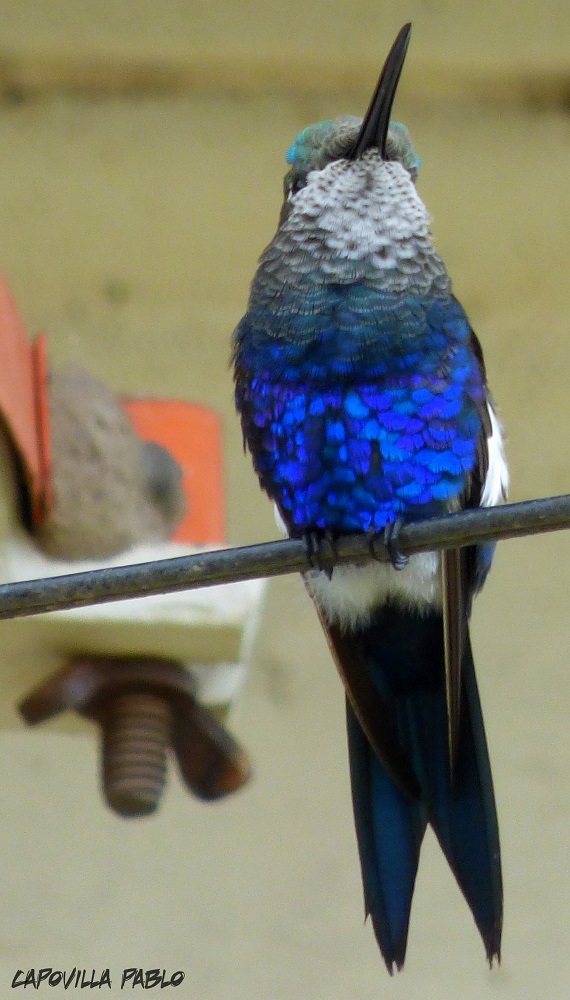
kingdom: Animalia
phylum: Chordata
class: Aves
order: Apodiformes
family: Trochilidae
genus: Heliomaster
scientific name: Heliomaster furcifer
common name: Blue-tufted starthroat
